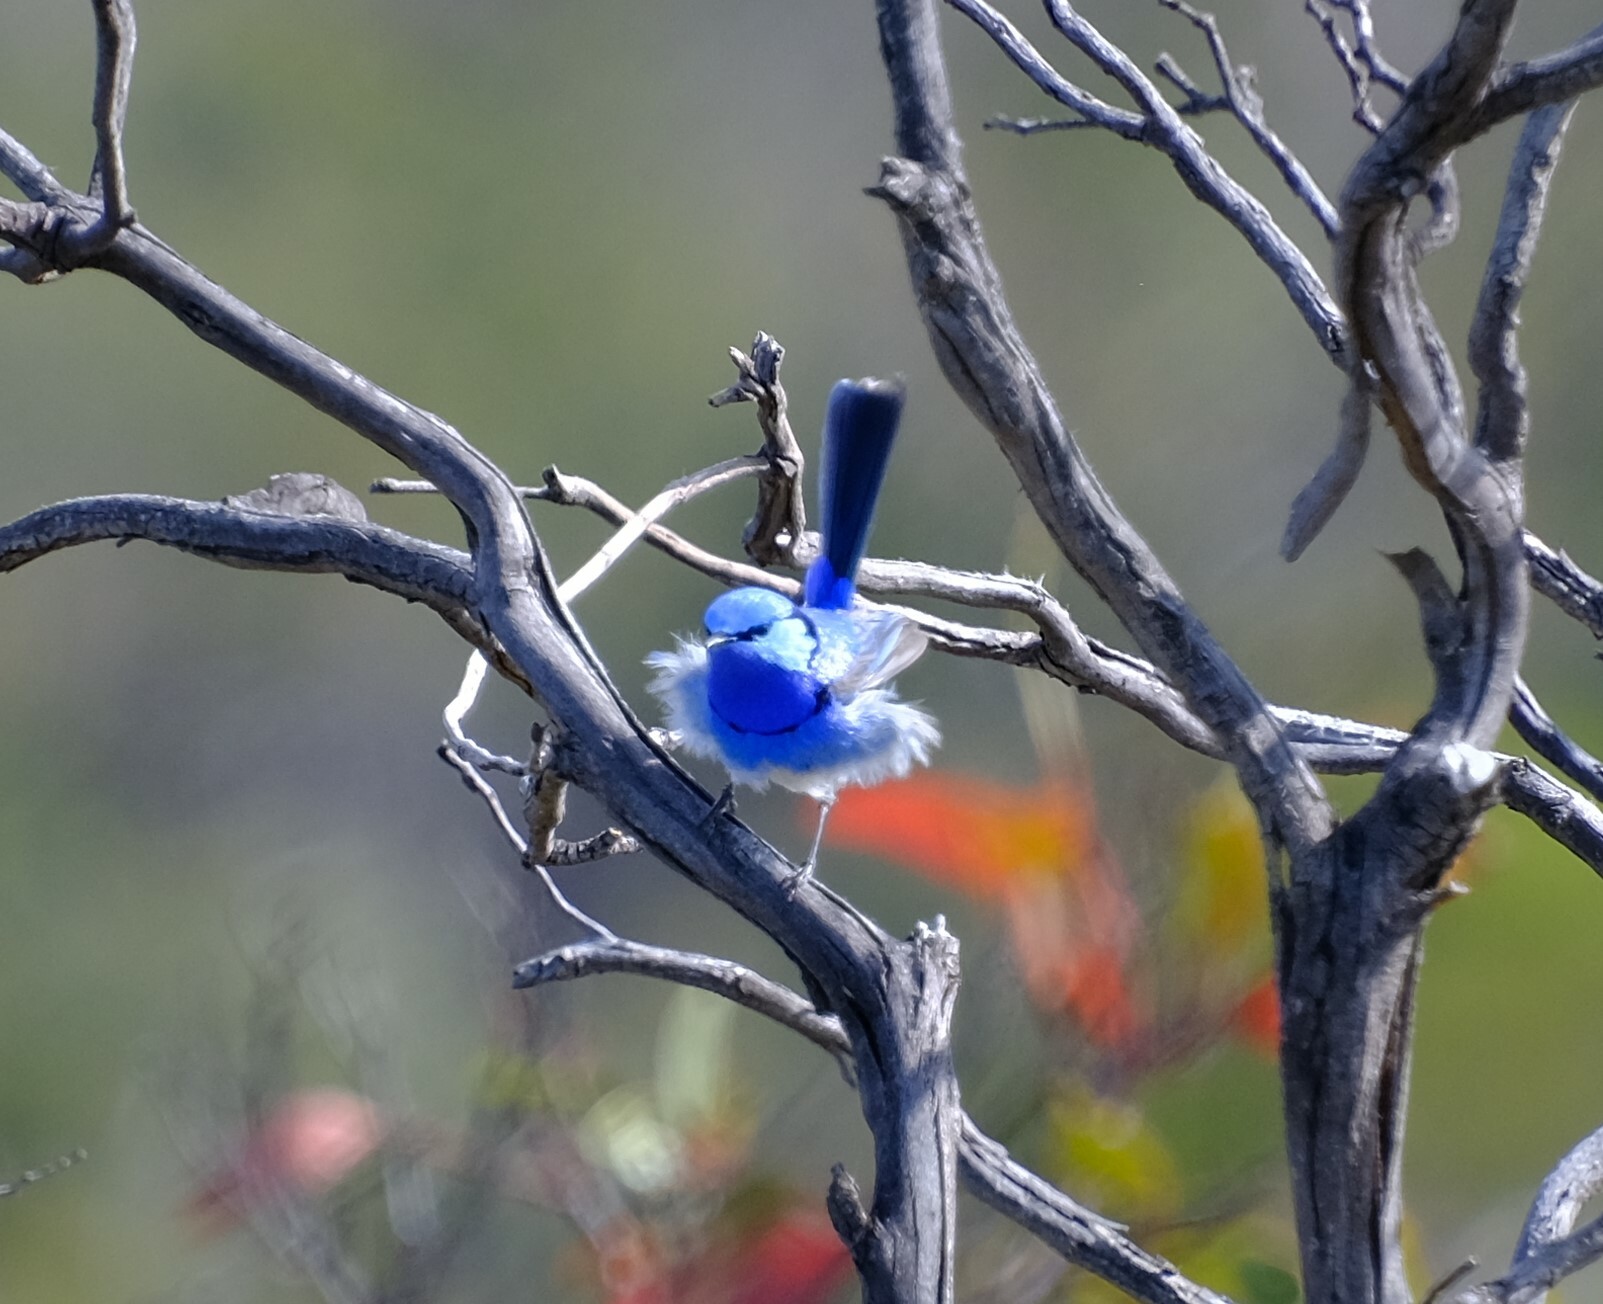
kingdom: Animalia
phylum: Chordata
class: Aves
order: Passeriformes
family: Maluridae
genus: Malurus
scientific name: Malurus splendens
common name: Splendid fairywren
